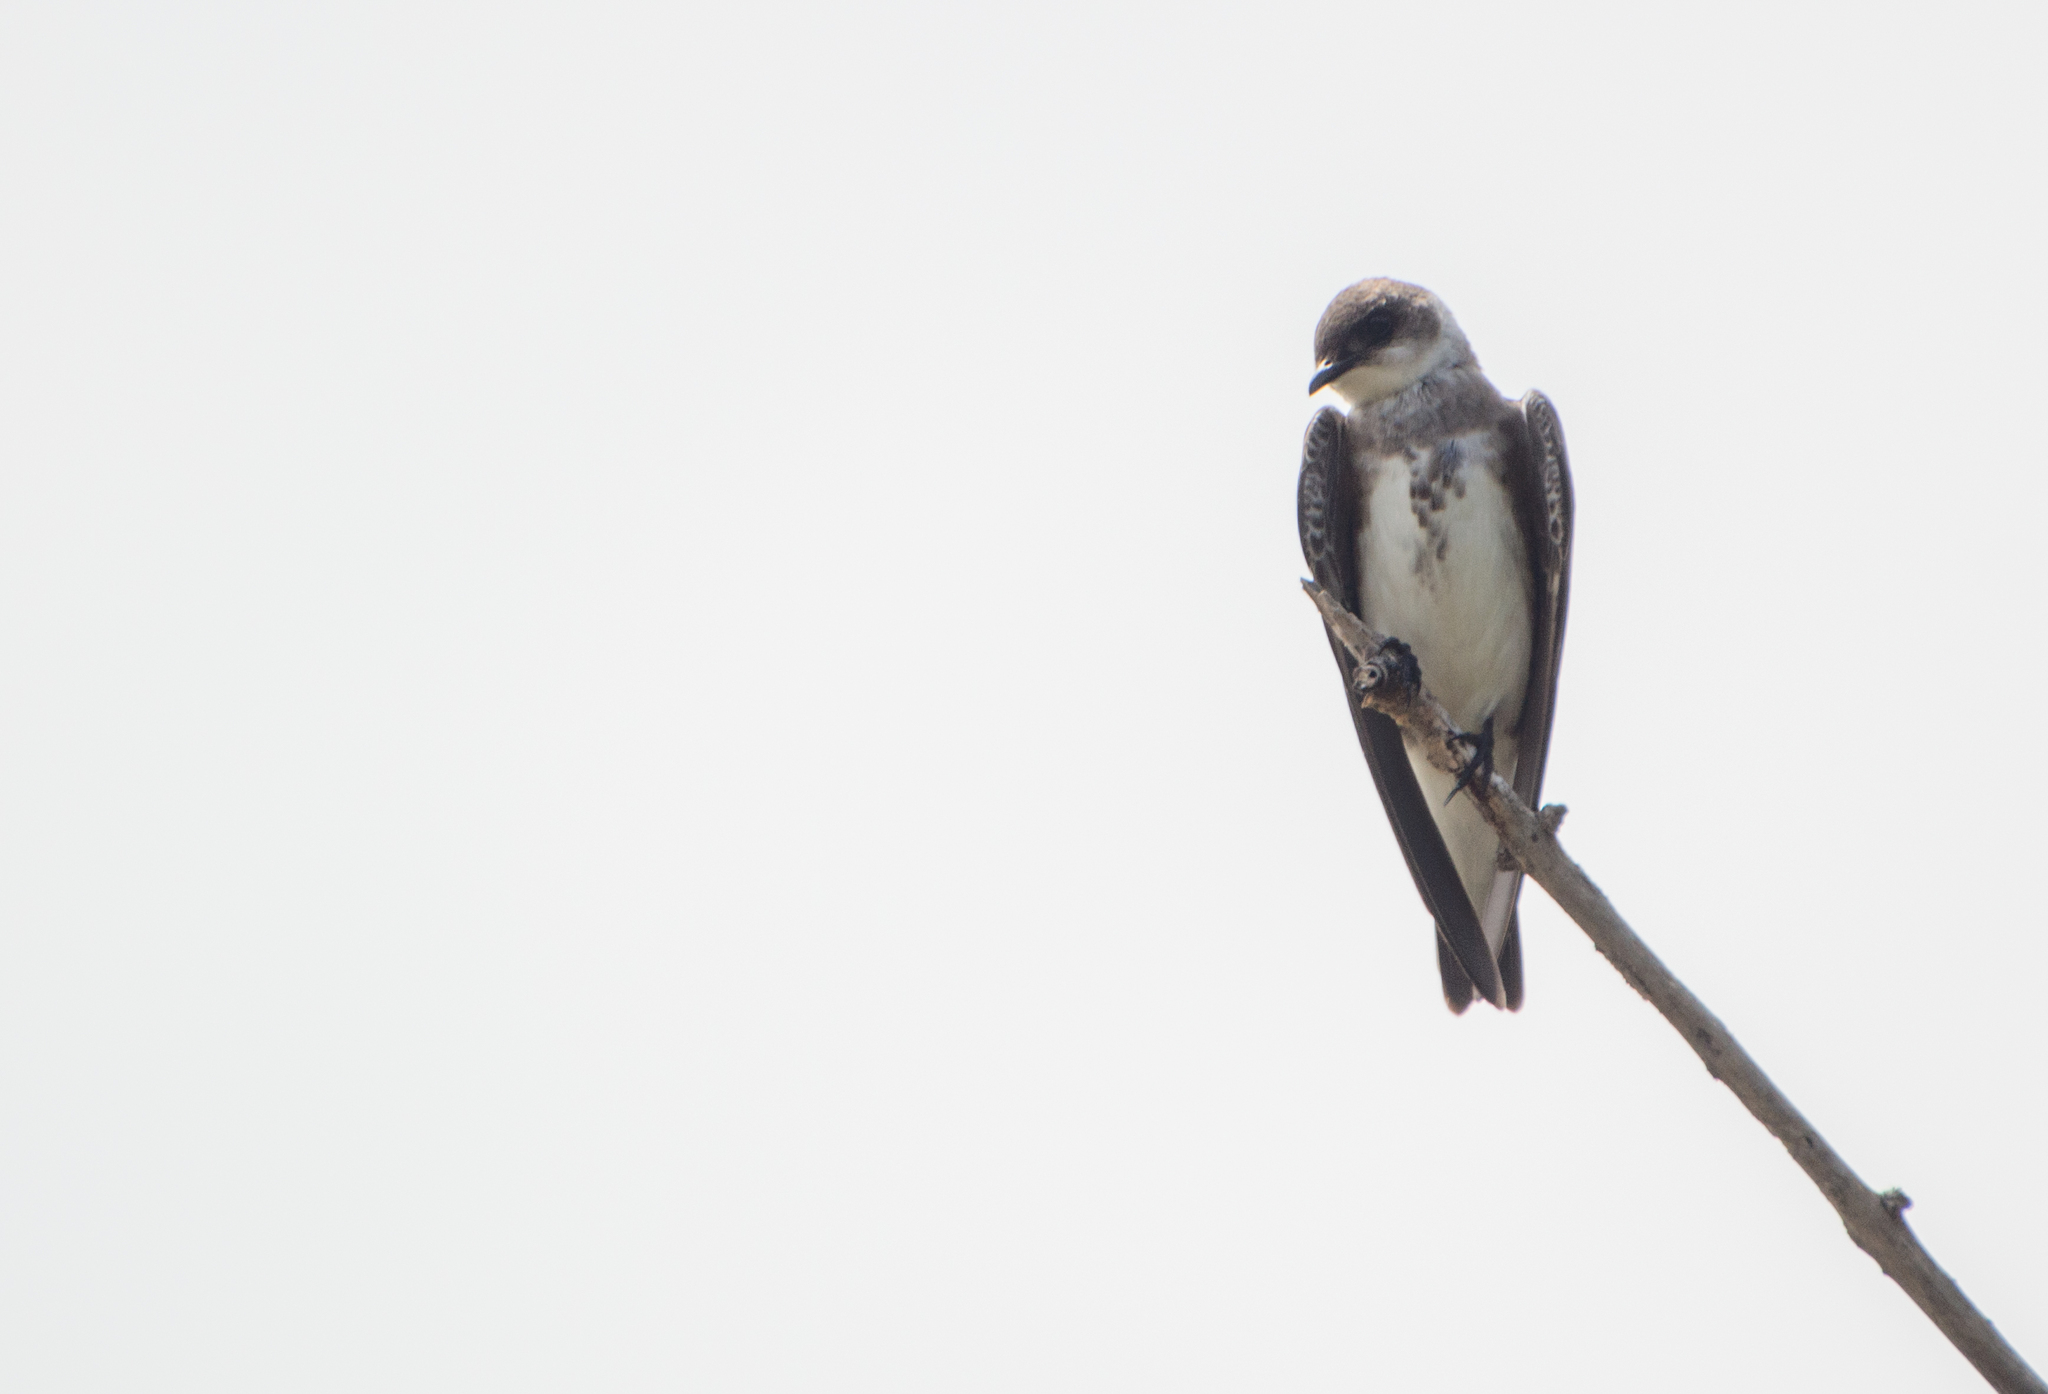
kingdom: Animalia
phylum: Chordata
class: Aves
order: Passeriformes
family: Hirundinidae
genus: Progne
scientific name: Progne tapera
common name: Brown-chested martin
